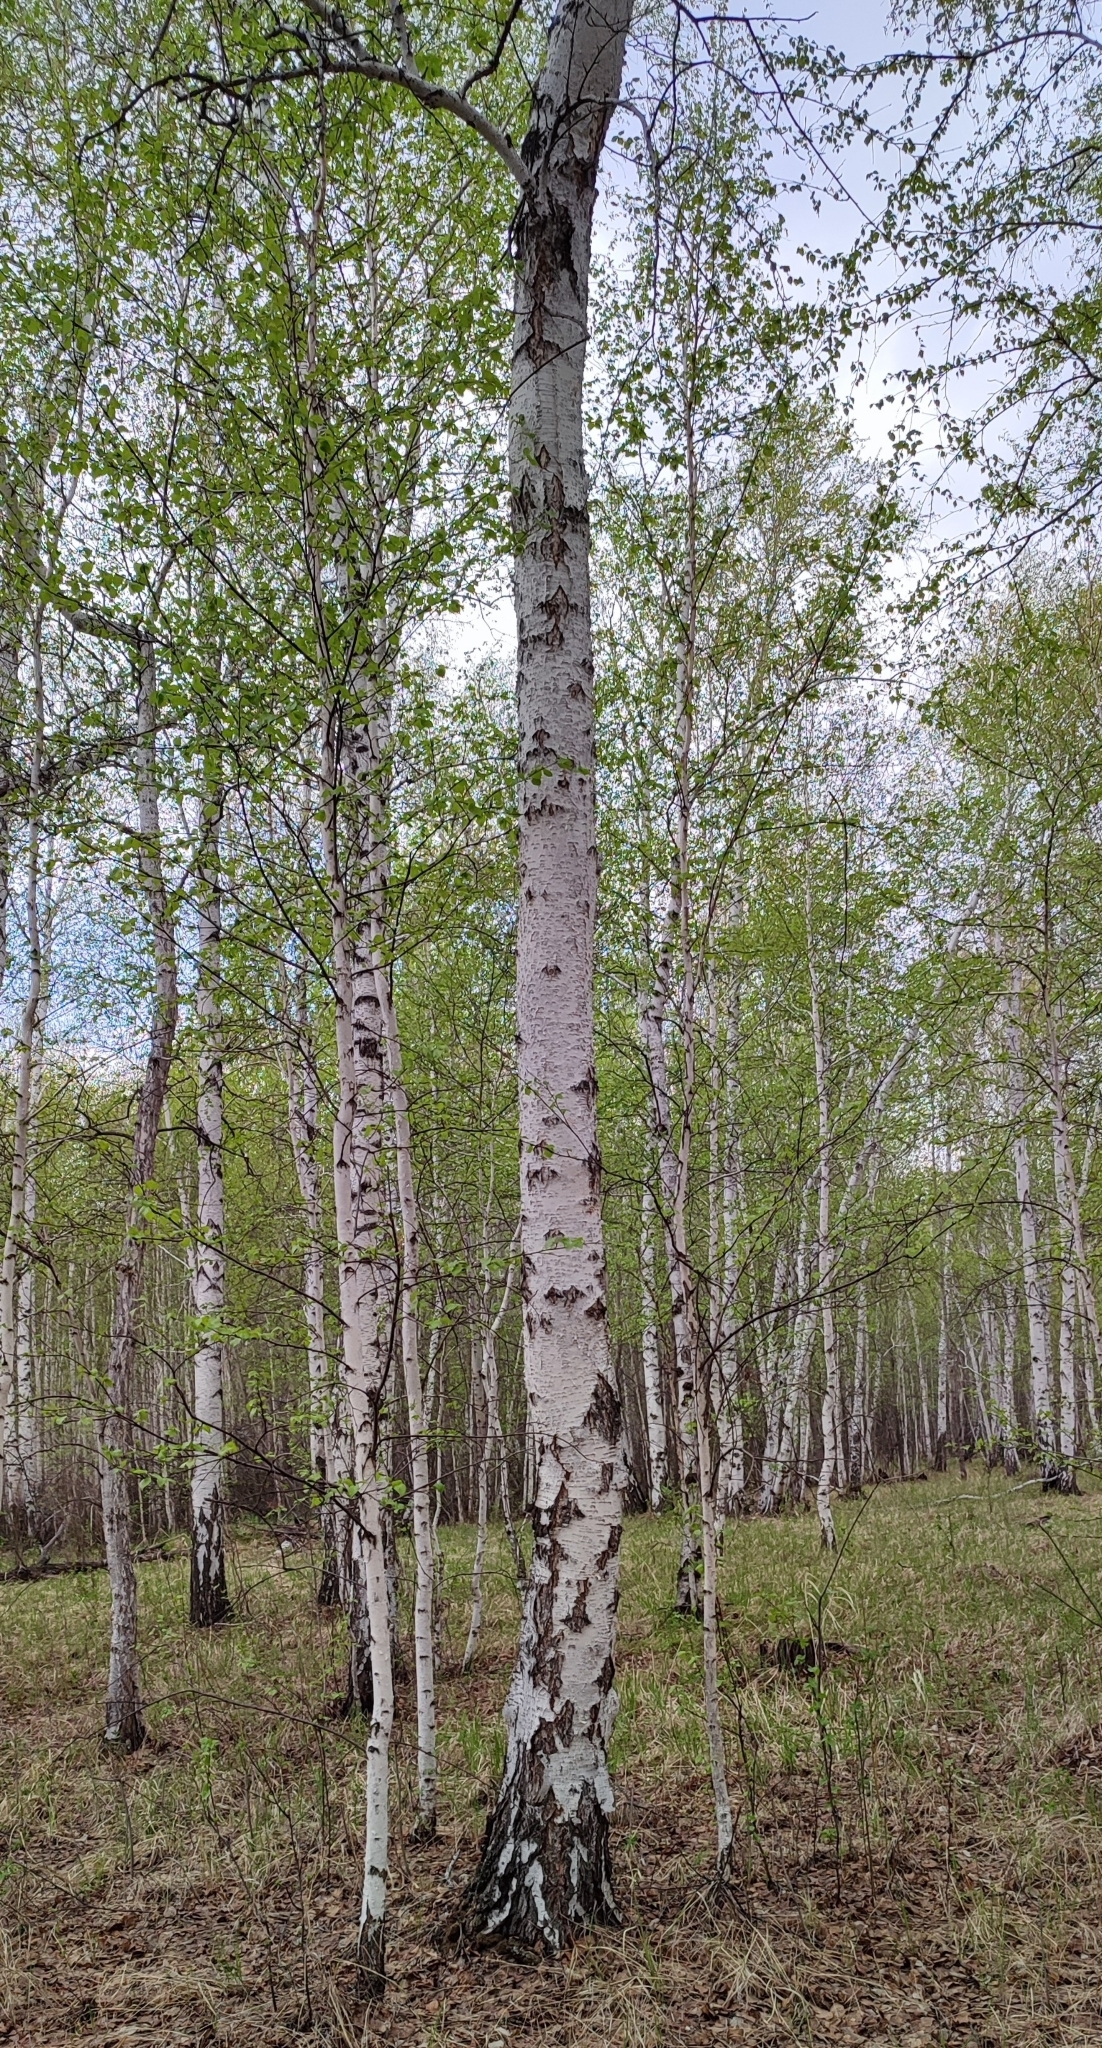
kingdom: Plantae
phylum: Tracheophyta
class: Magnoliopsida
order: Fagales
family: Betulaceae
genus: Betula
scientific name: Betula pendula
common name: Silver birch
